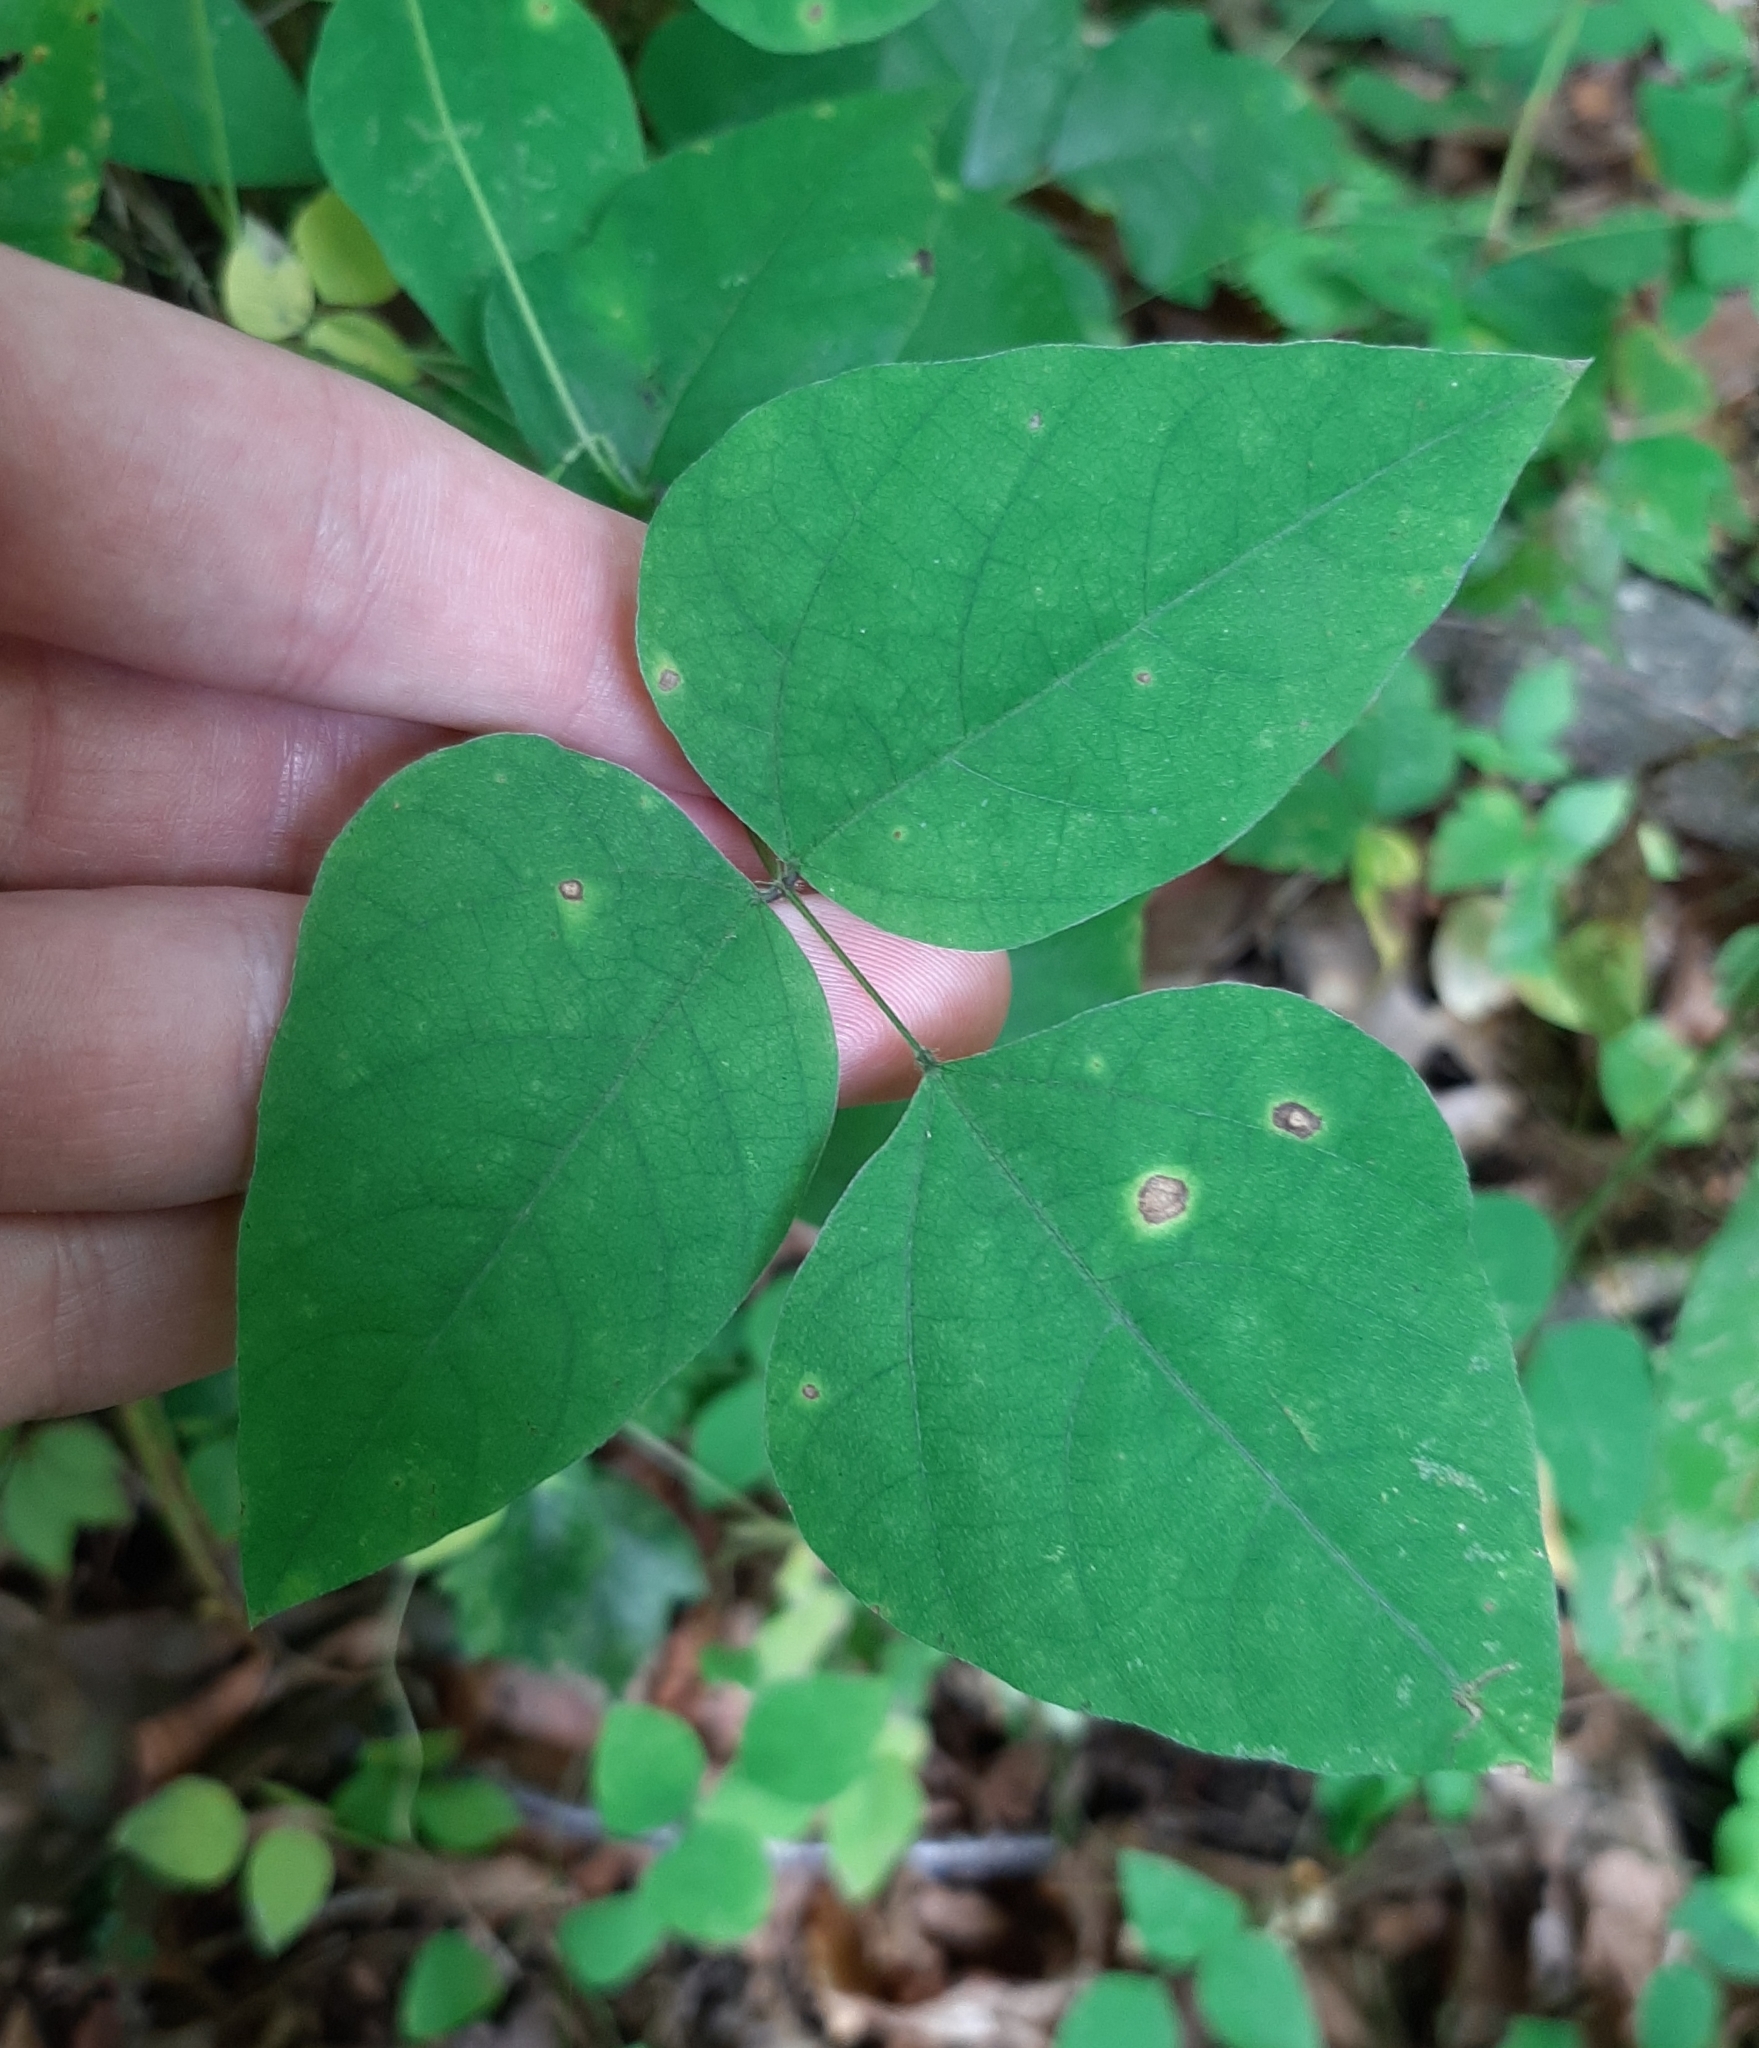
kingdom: Plantae
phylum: Tracheophyta
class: Magnoliopsida
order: Fabales
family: Fabaceae
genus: Amphicarpaea
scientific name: Amphicarpaea bracteata
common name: American hog peanut
